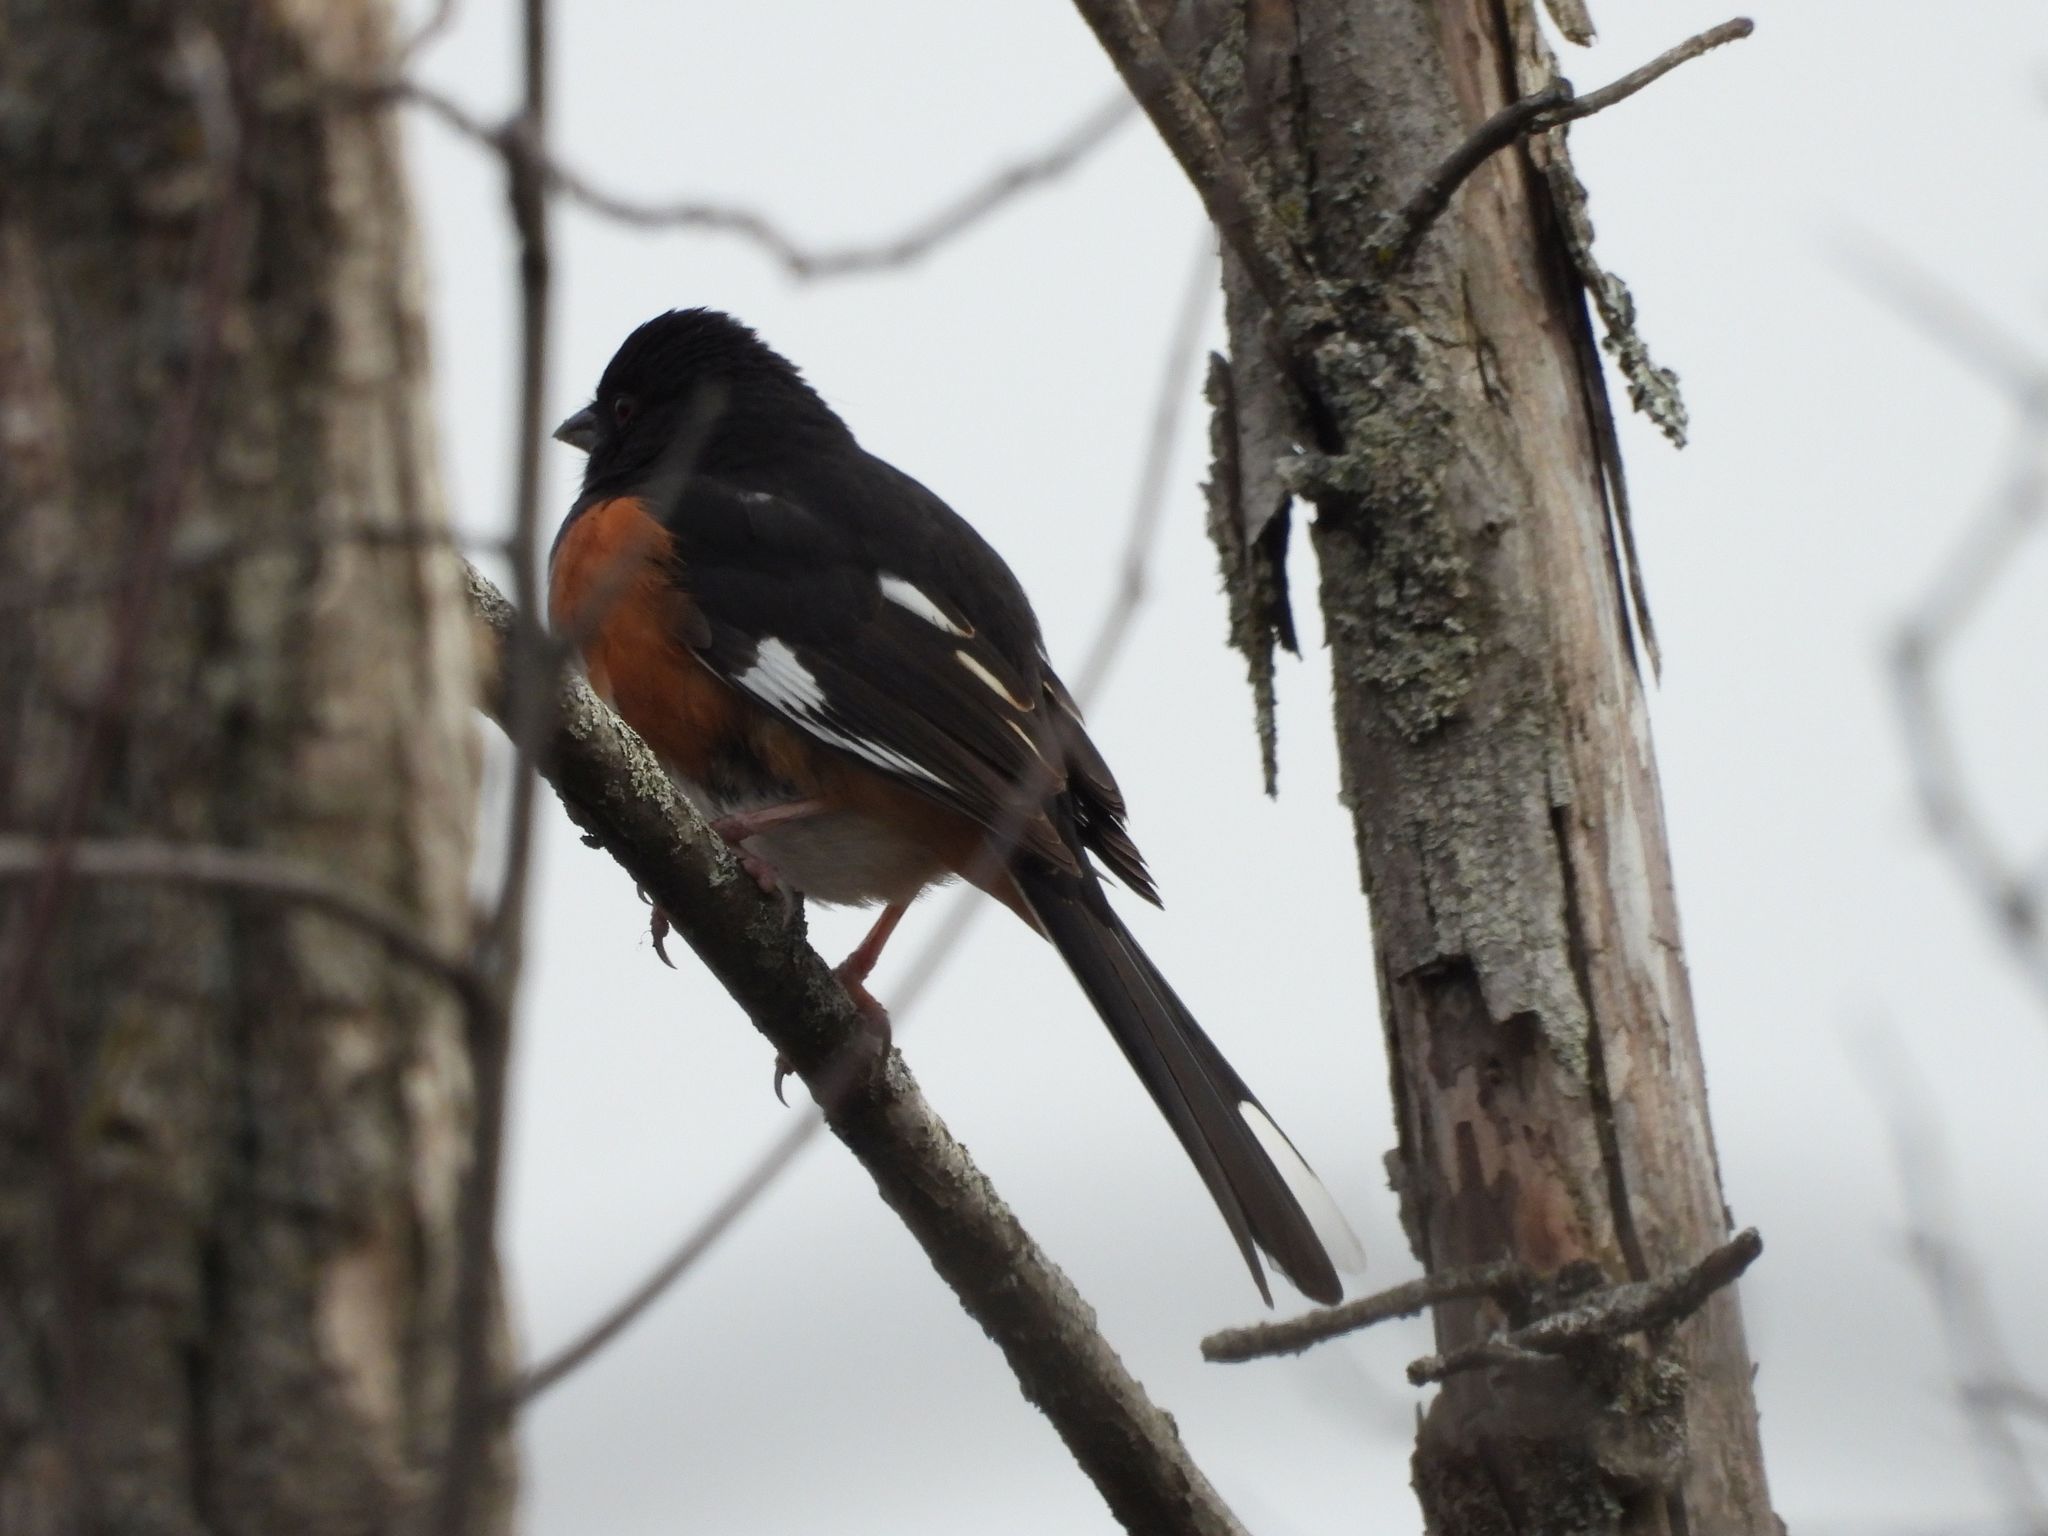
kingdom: Animalia
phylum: Chordata
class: Aves
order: Passeriformes
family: Passerellidae
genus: Pipilo
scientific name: Pipilo erythrophthalmus
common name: Eastern towhee
